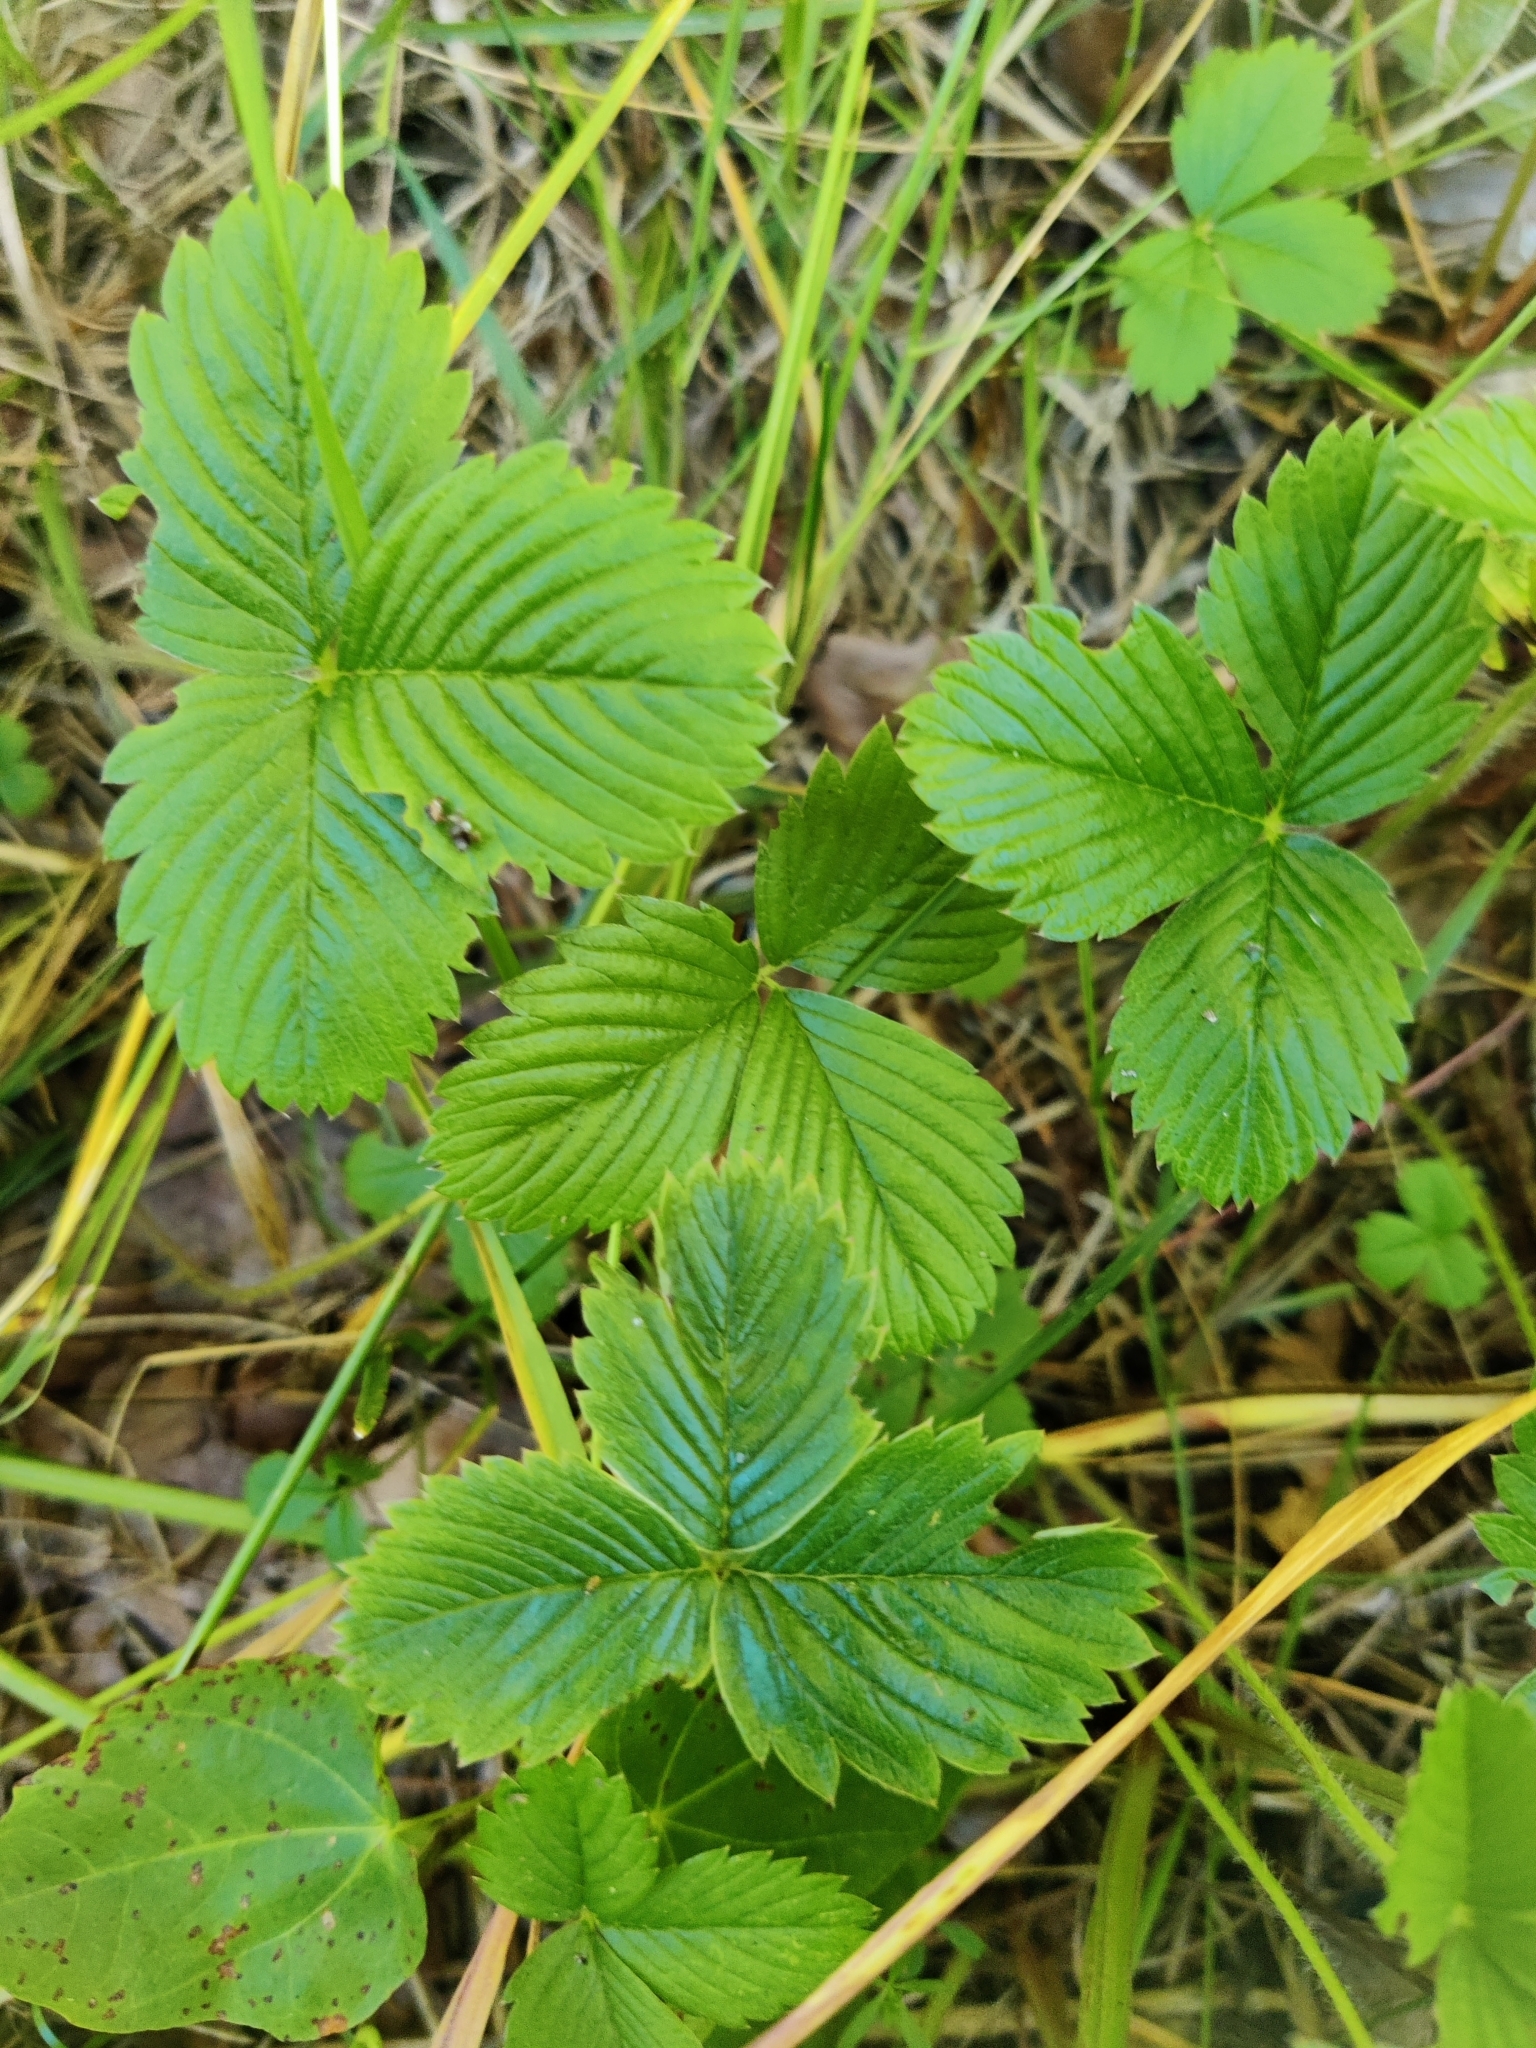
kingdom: Plantae
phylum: Tracheophyta
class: Magnoliopsida
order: Rosales
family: Rosaceae
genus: Fragaria
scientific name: Fragaria viridis
